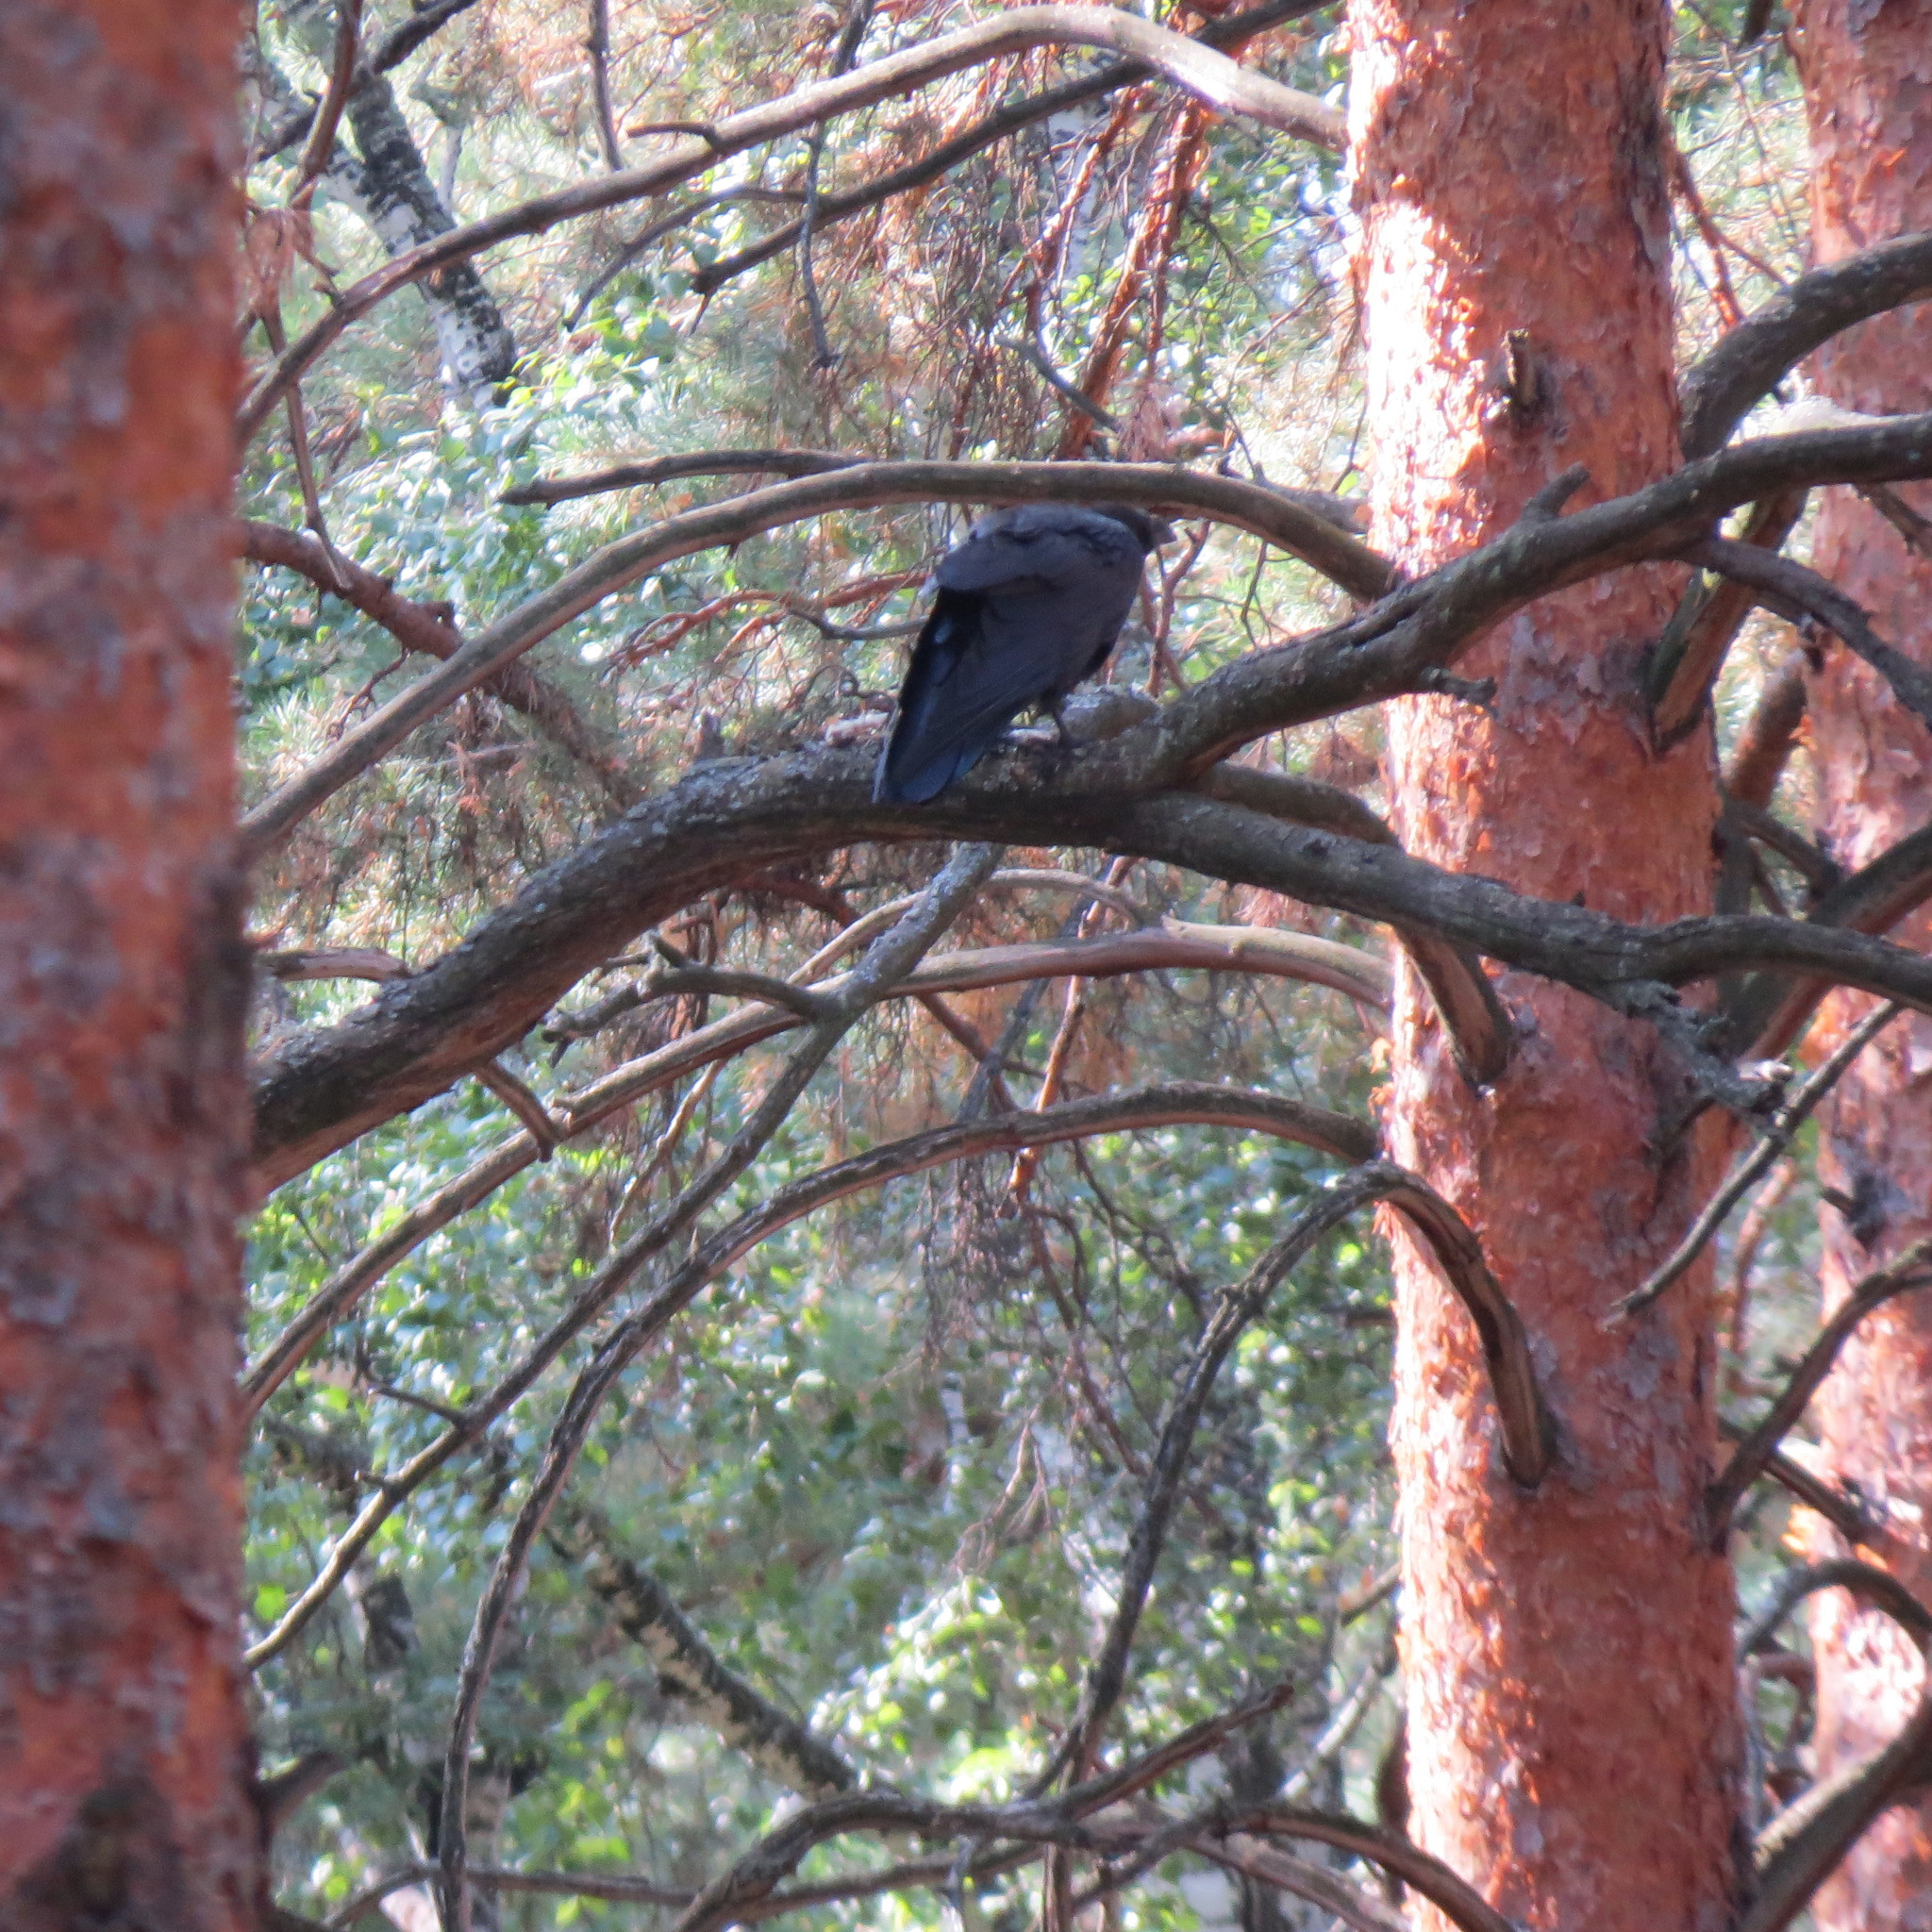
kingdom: Animalia
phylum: Chordata
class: Aves
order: Passeriformes
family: Corvidae
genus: Corvus
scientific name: Corvus corax
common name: Common raven
